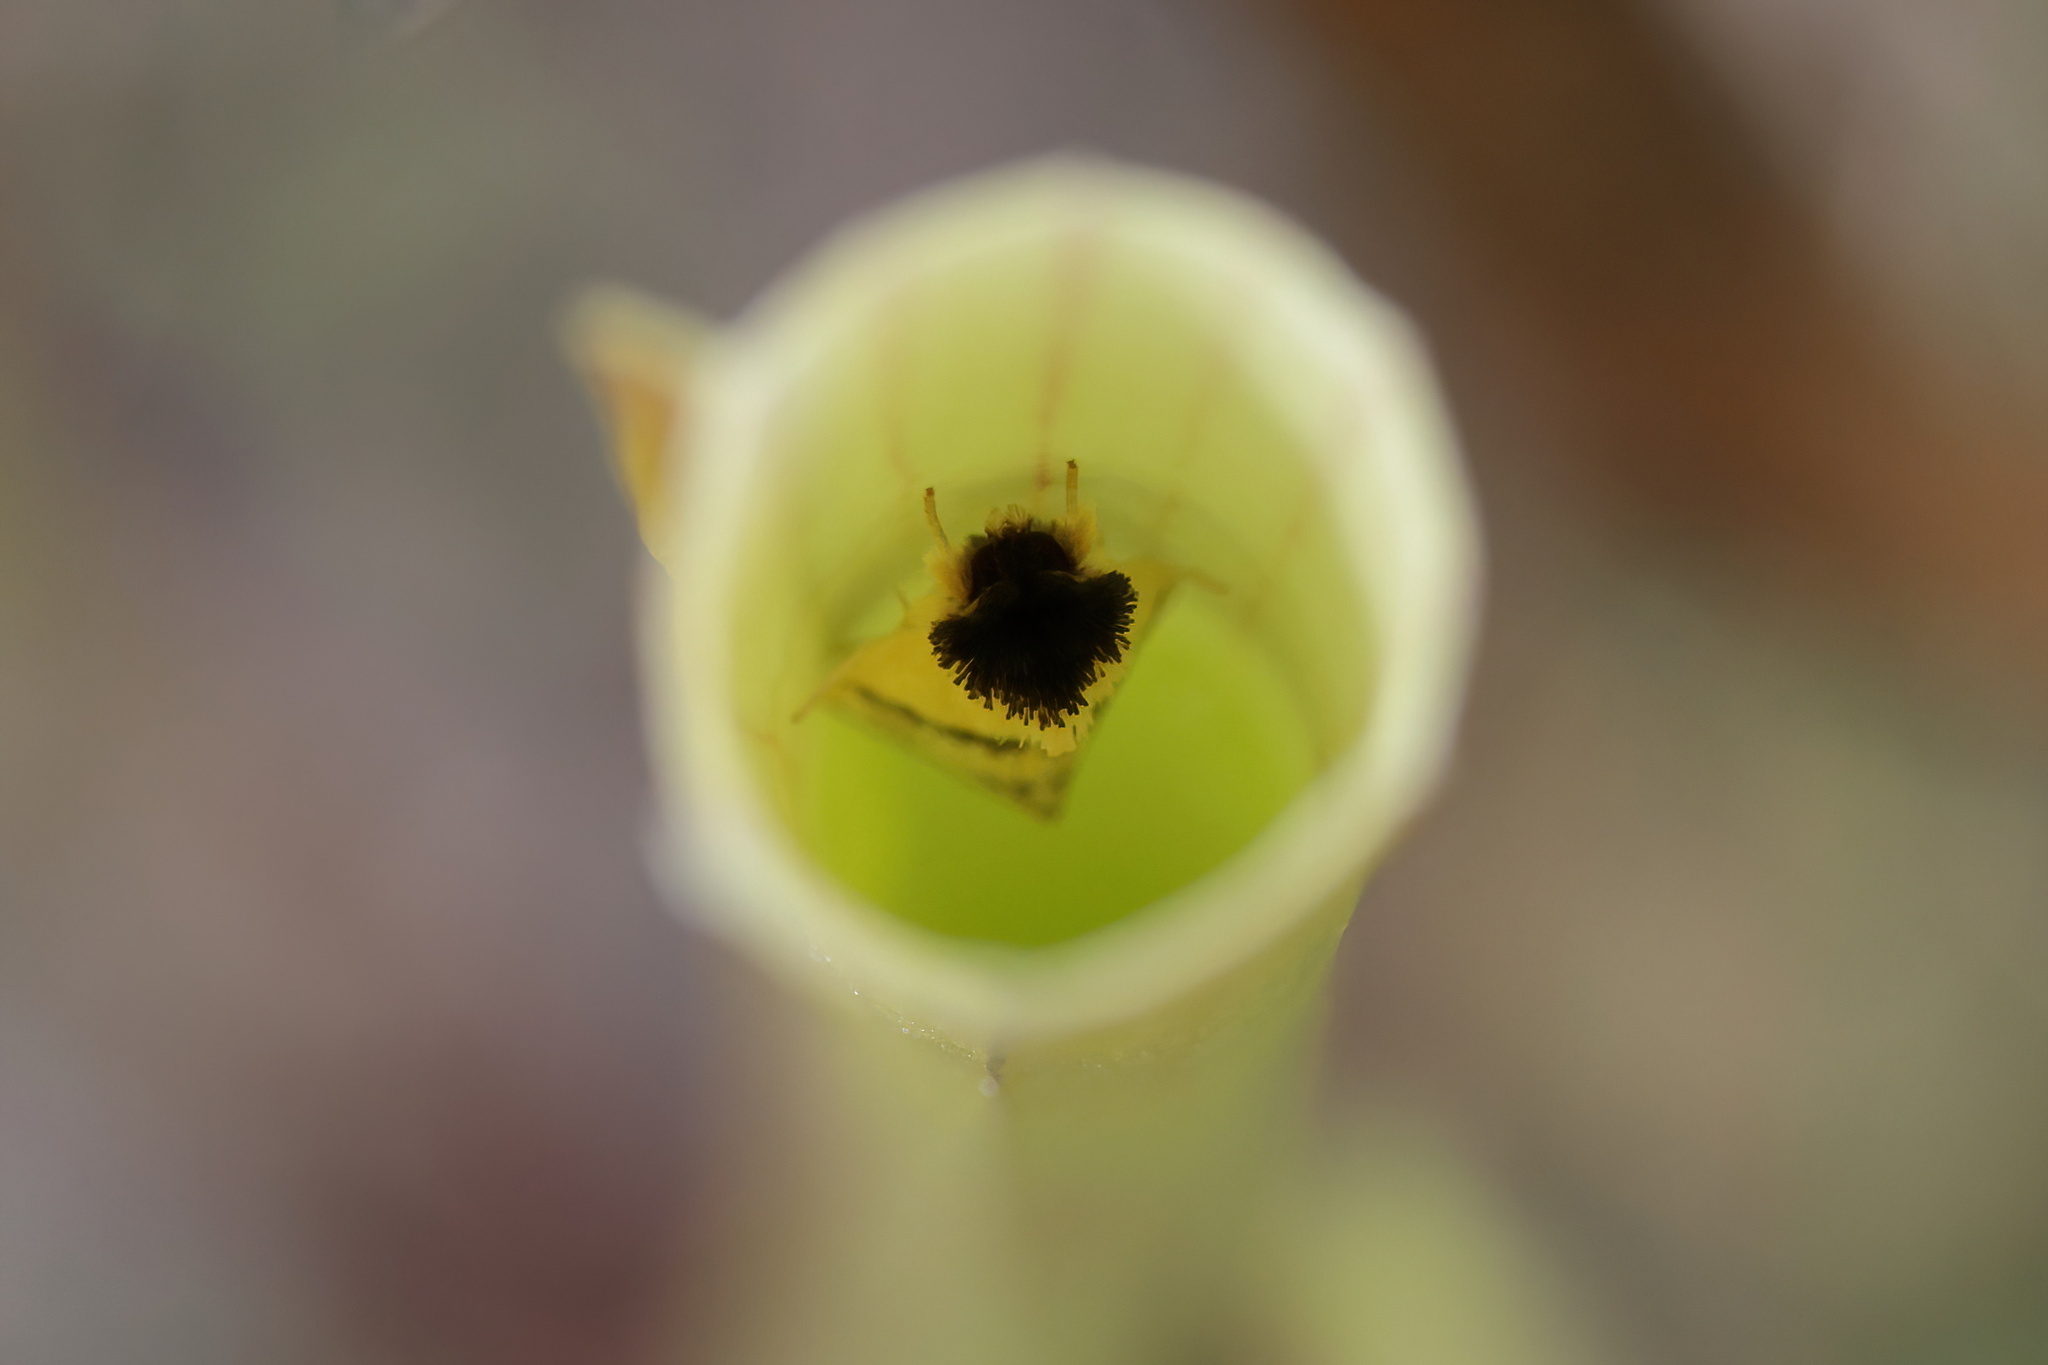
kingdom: Animalia
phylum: Arthropoda
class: Insecta
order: Lepidoptera
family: Noctuidae
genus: Exyra
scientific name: Exyra semicrocea
